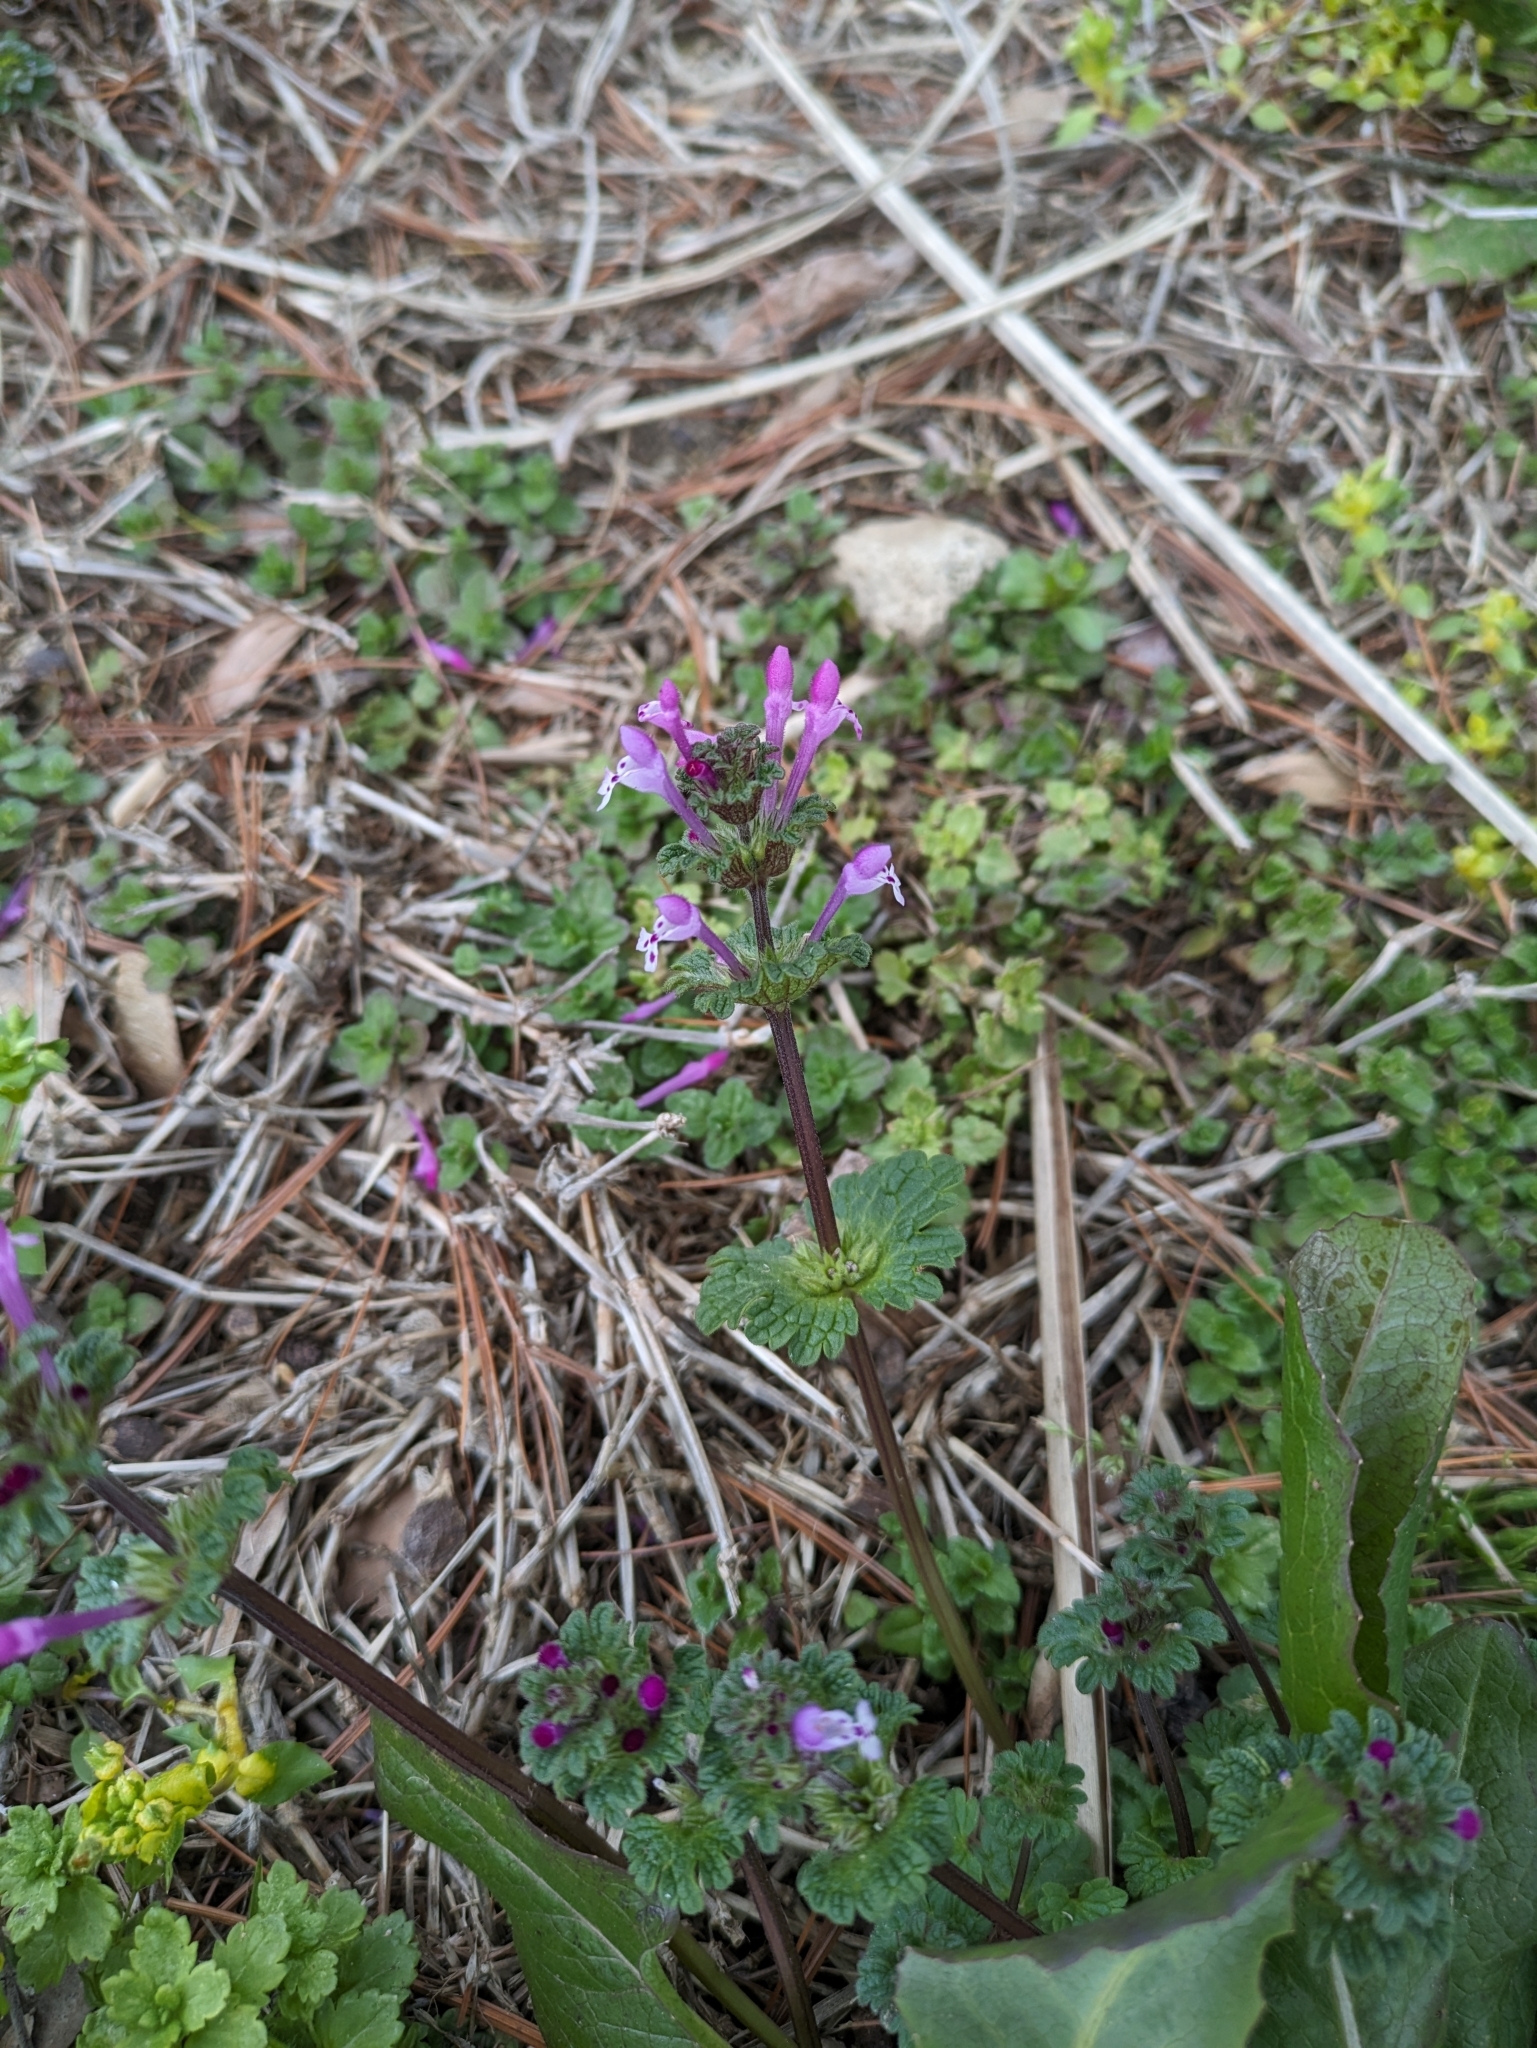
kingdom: Plantae
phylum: Tracheophyta
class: Magnoliopsida
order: Lamiales
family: Lamiaceae
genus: Lamium
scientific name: Lamium amplexicaule
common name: Henbit dead-nettle
